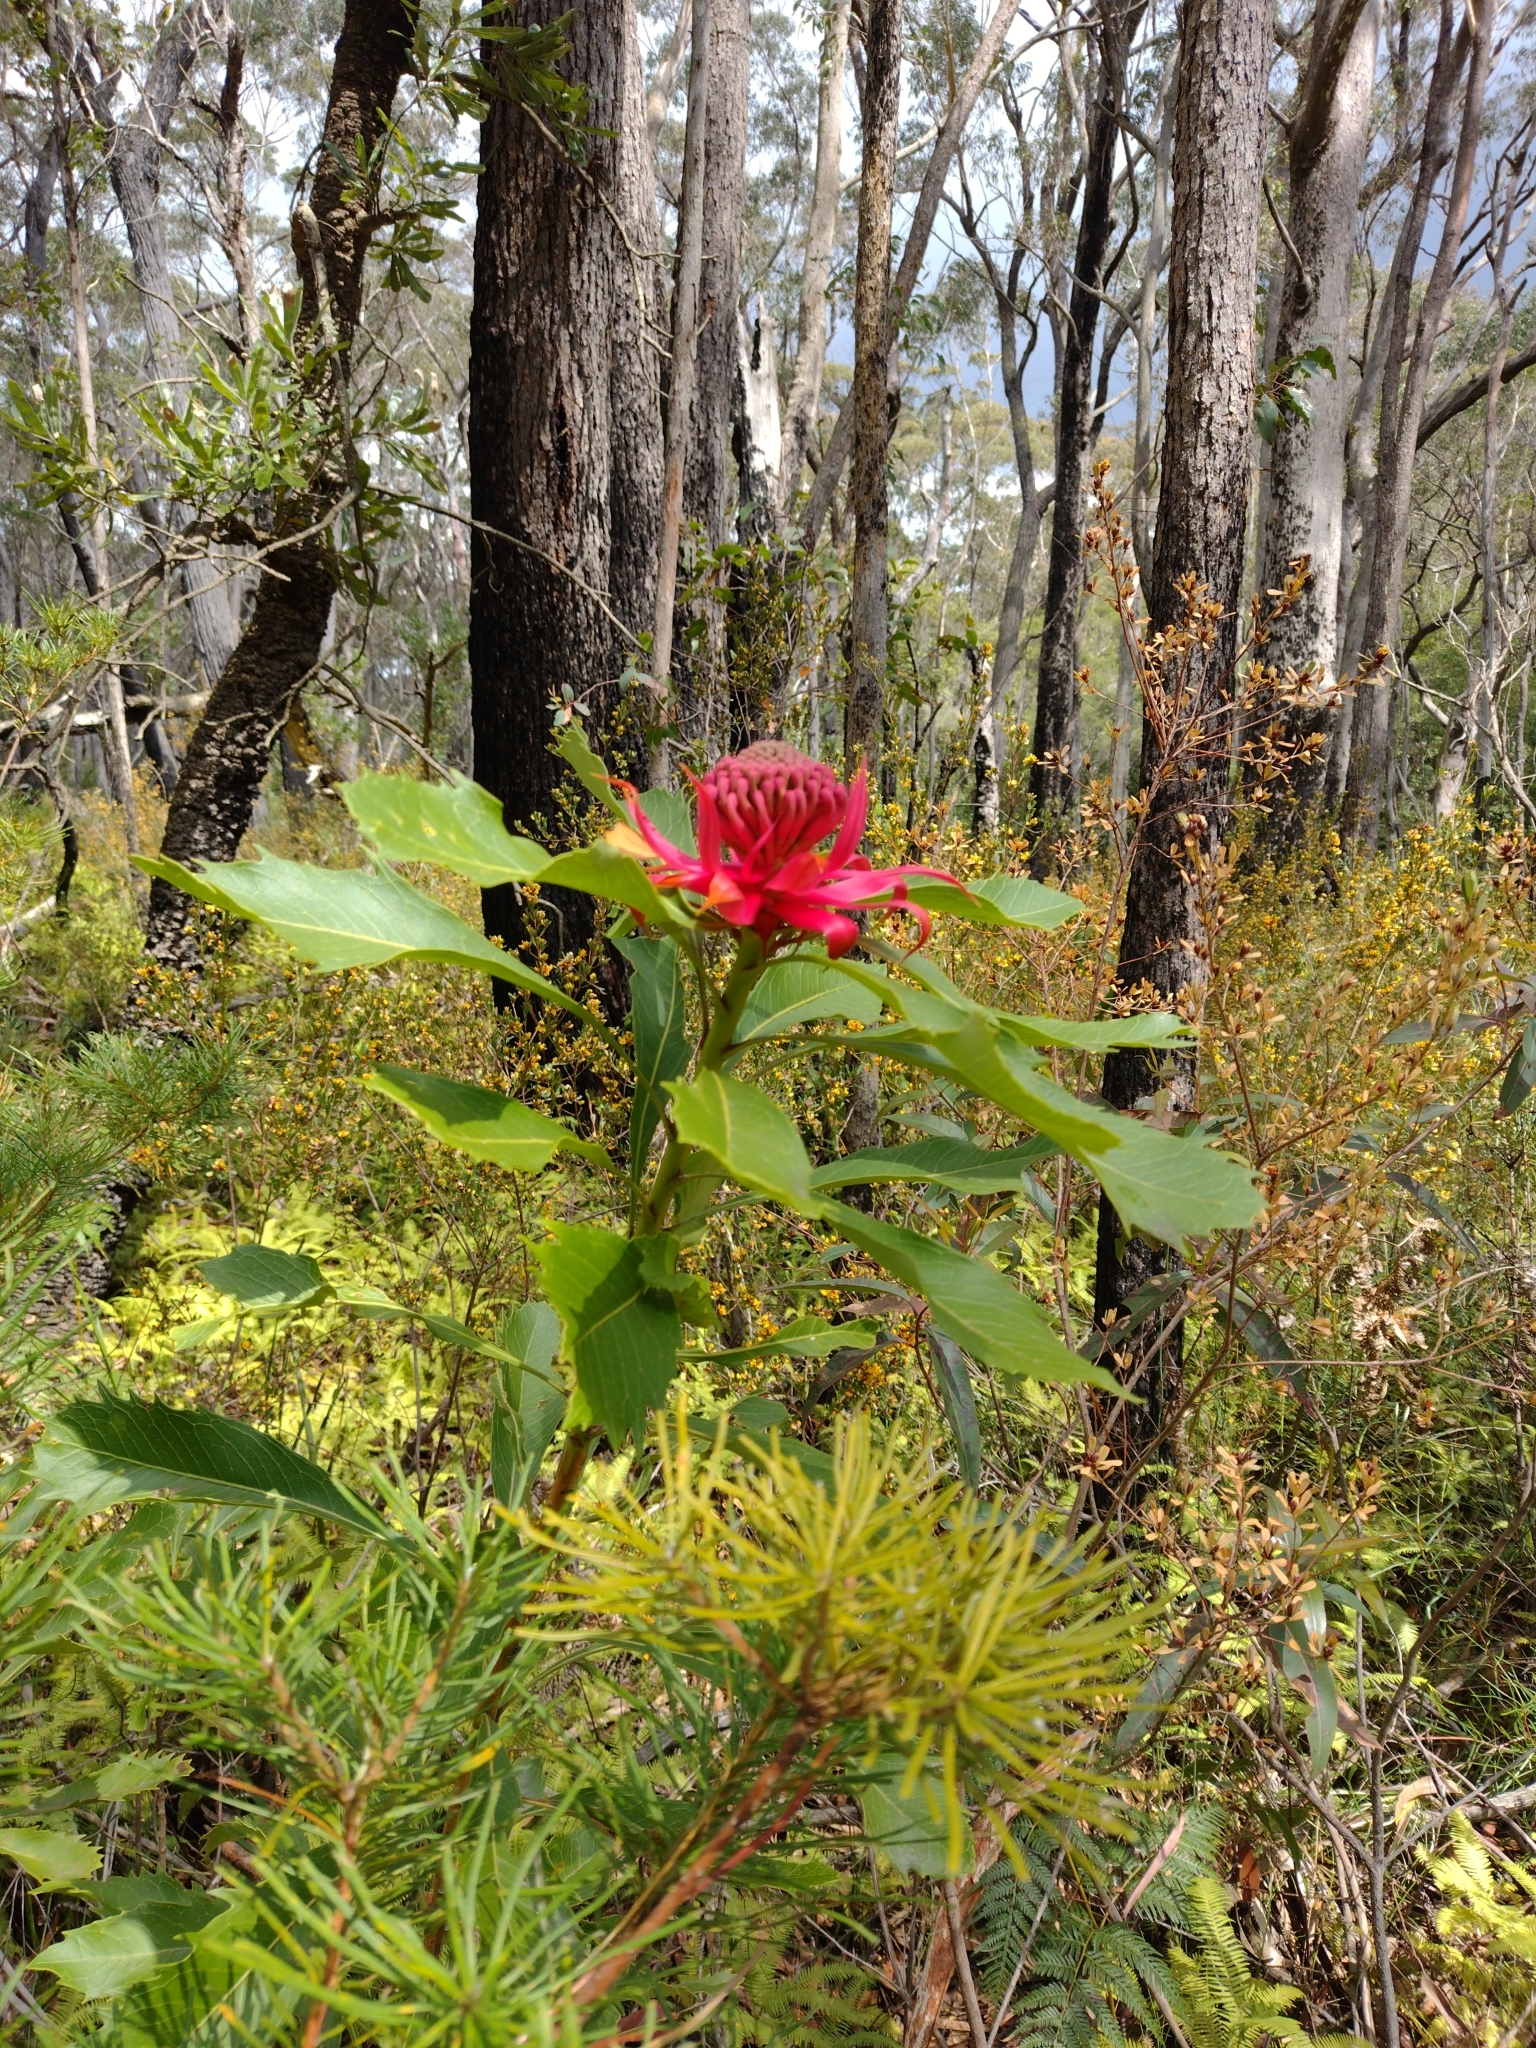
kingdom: Plantae
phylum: Tracheophyta
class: Magnoliopsida
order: Proteales
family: Proteaceae
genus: Telopea
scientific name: Telopea speciosissima
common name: New south wales waratah
